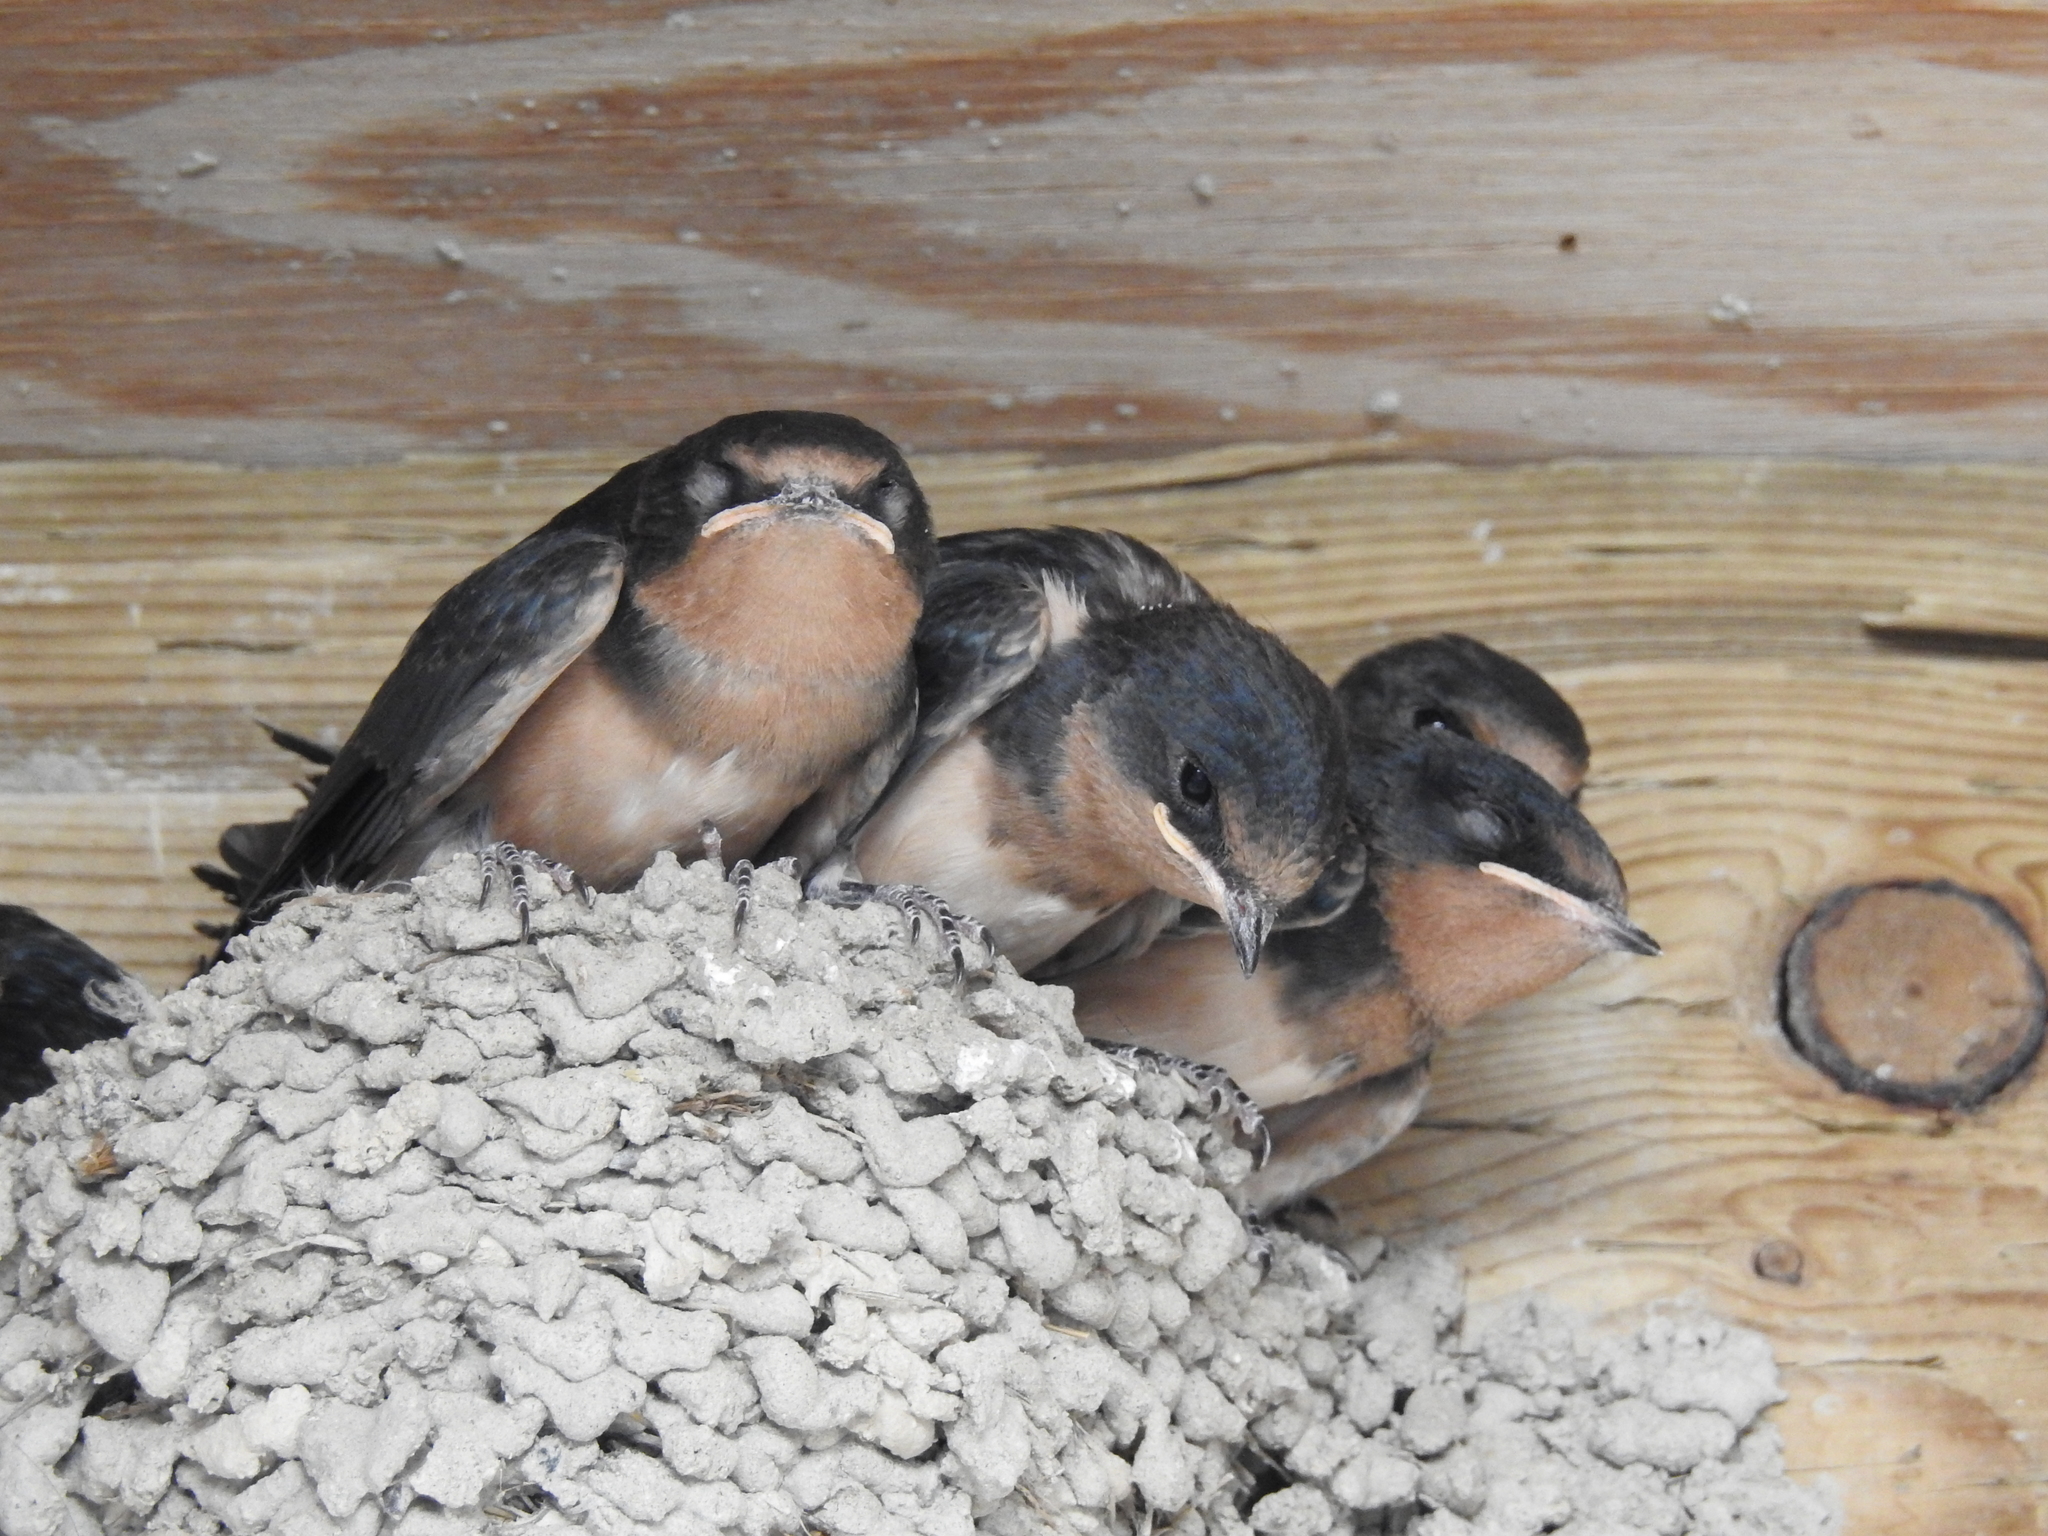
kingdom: Animalia
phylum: Chordata
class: Aves
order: Passeriformes
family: Hirundinidae
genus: Hirundo
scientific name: Hirundo rustica
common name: Barn swallow
